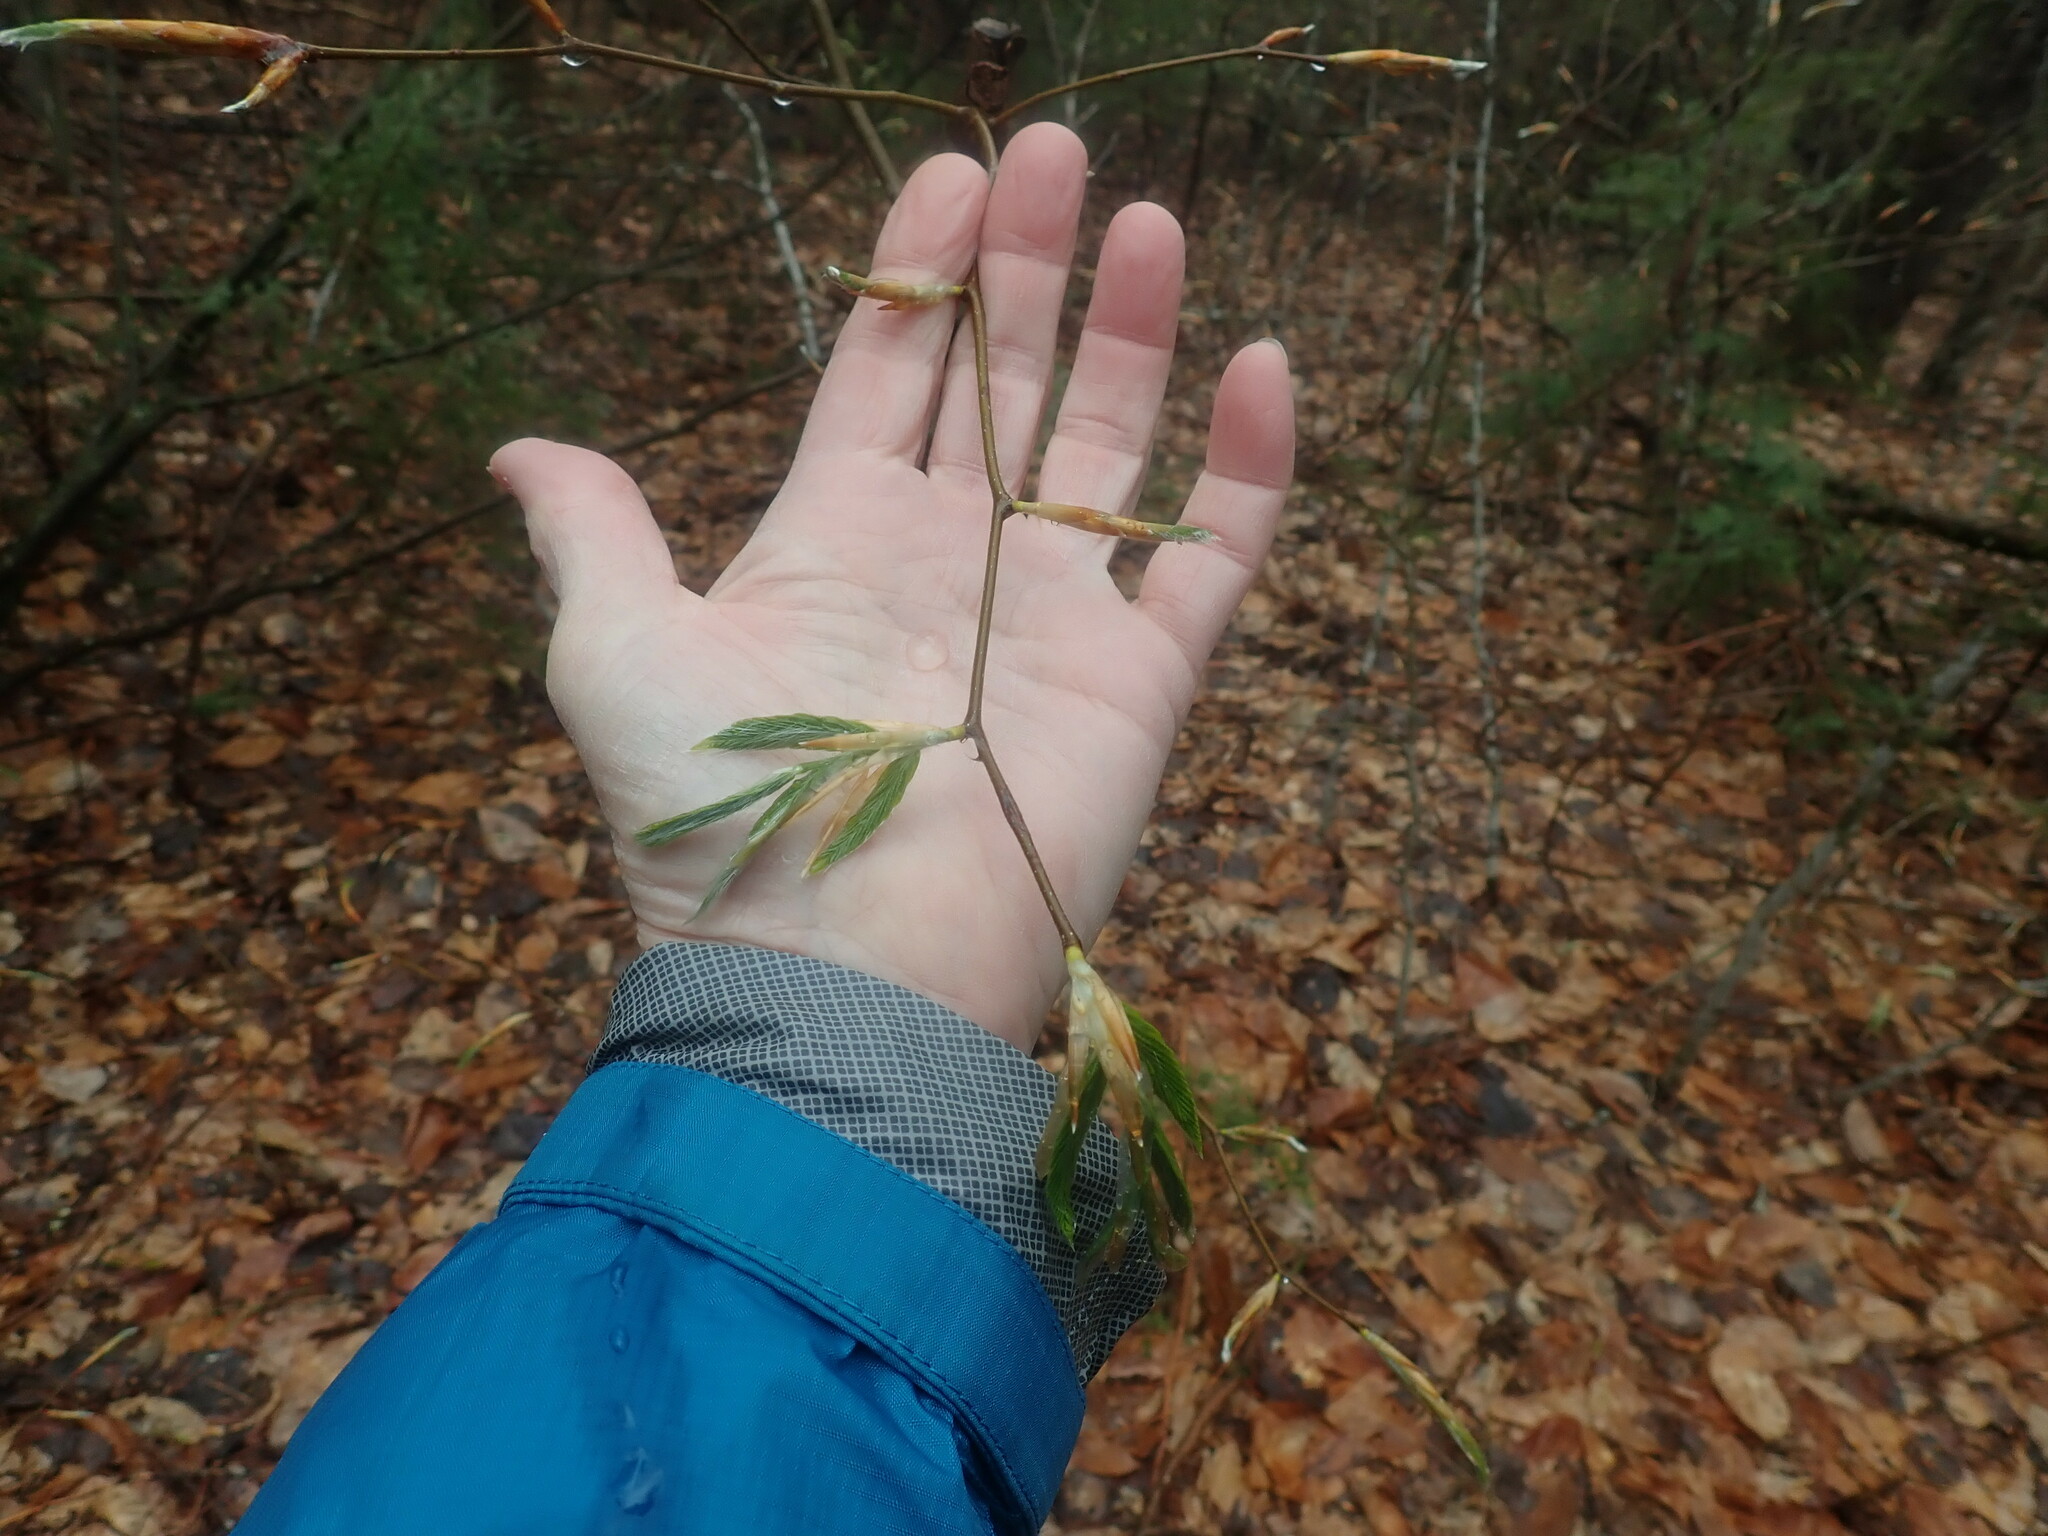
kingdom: Plantae
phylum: Tracheophyta
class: Magnoliopsida
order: Fagales
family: Fagaceae
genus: Fagus
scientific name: Fagus grandifolia
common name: American beech
